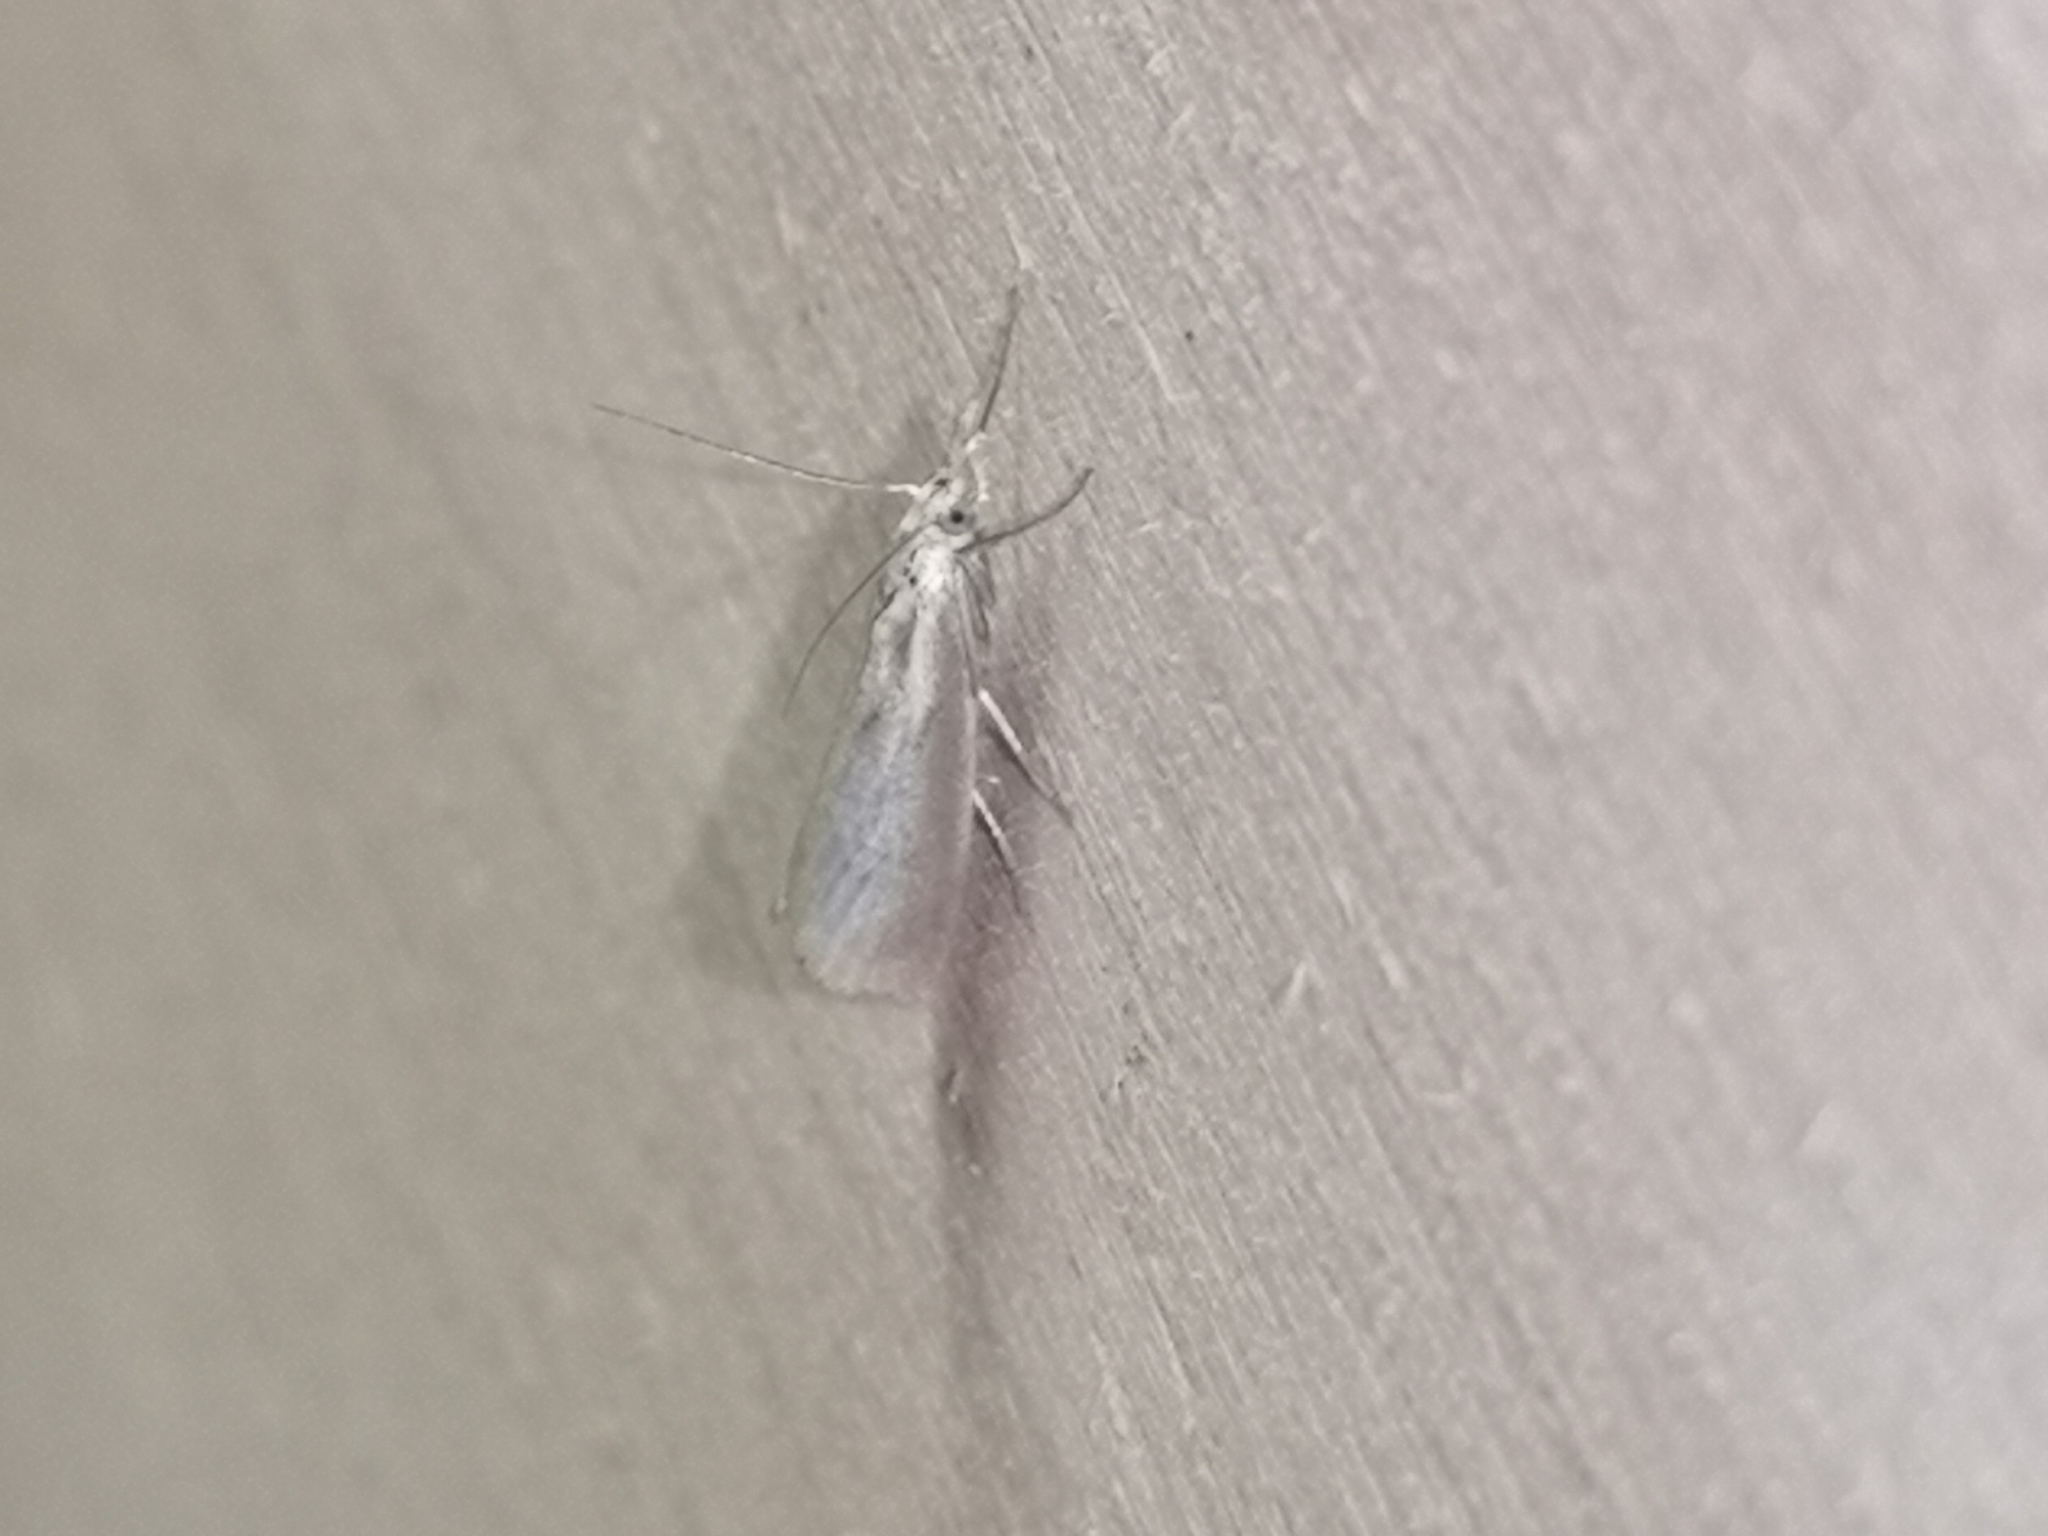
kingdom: Animalia
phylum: Arthropoda
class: Insecta
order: Lepidoptera
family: Crambidae
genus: Agriphila
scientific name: Agriphila straminella
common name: Straw grass-veneer
